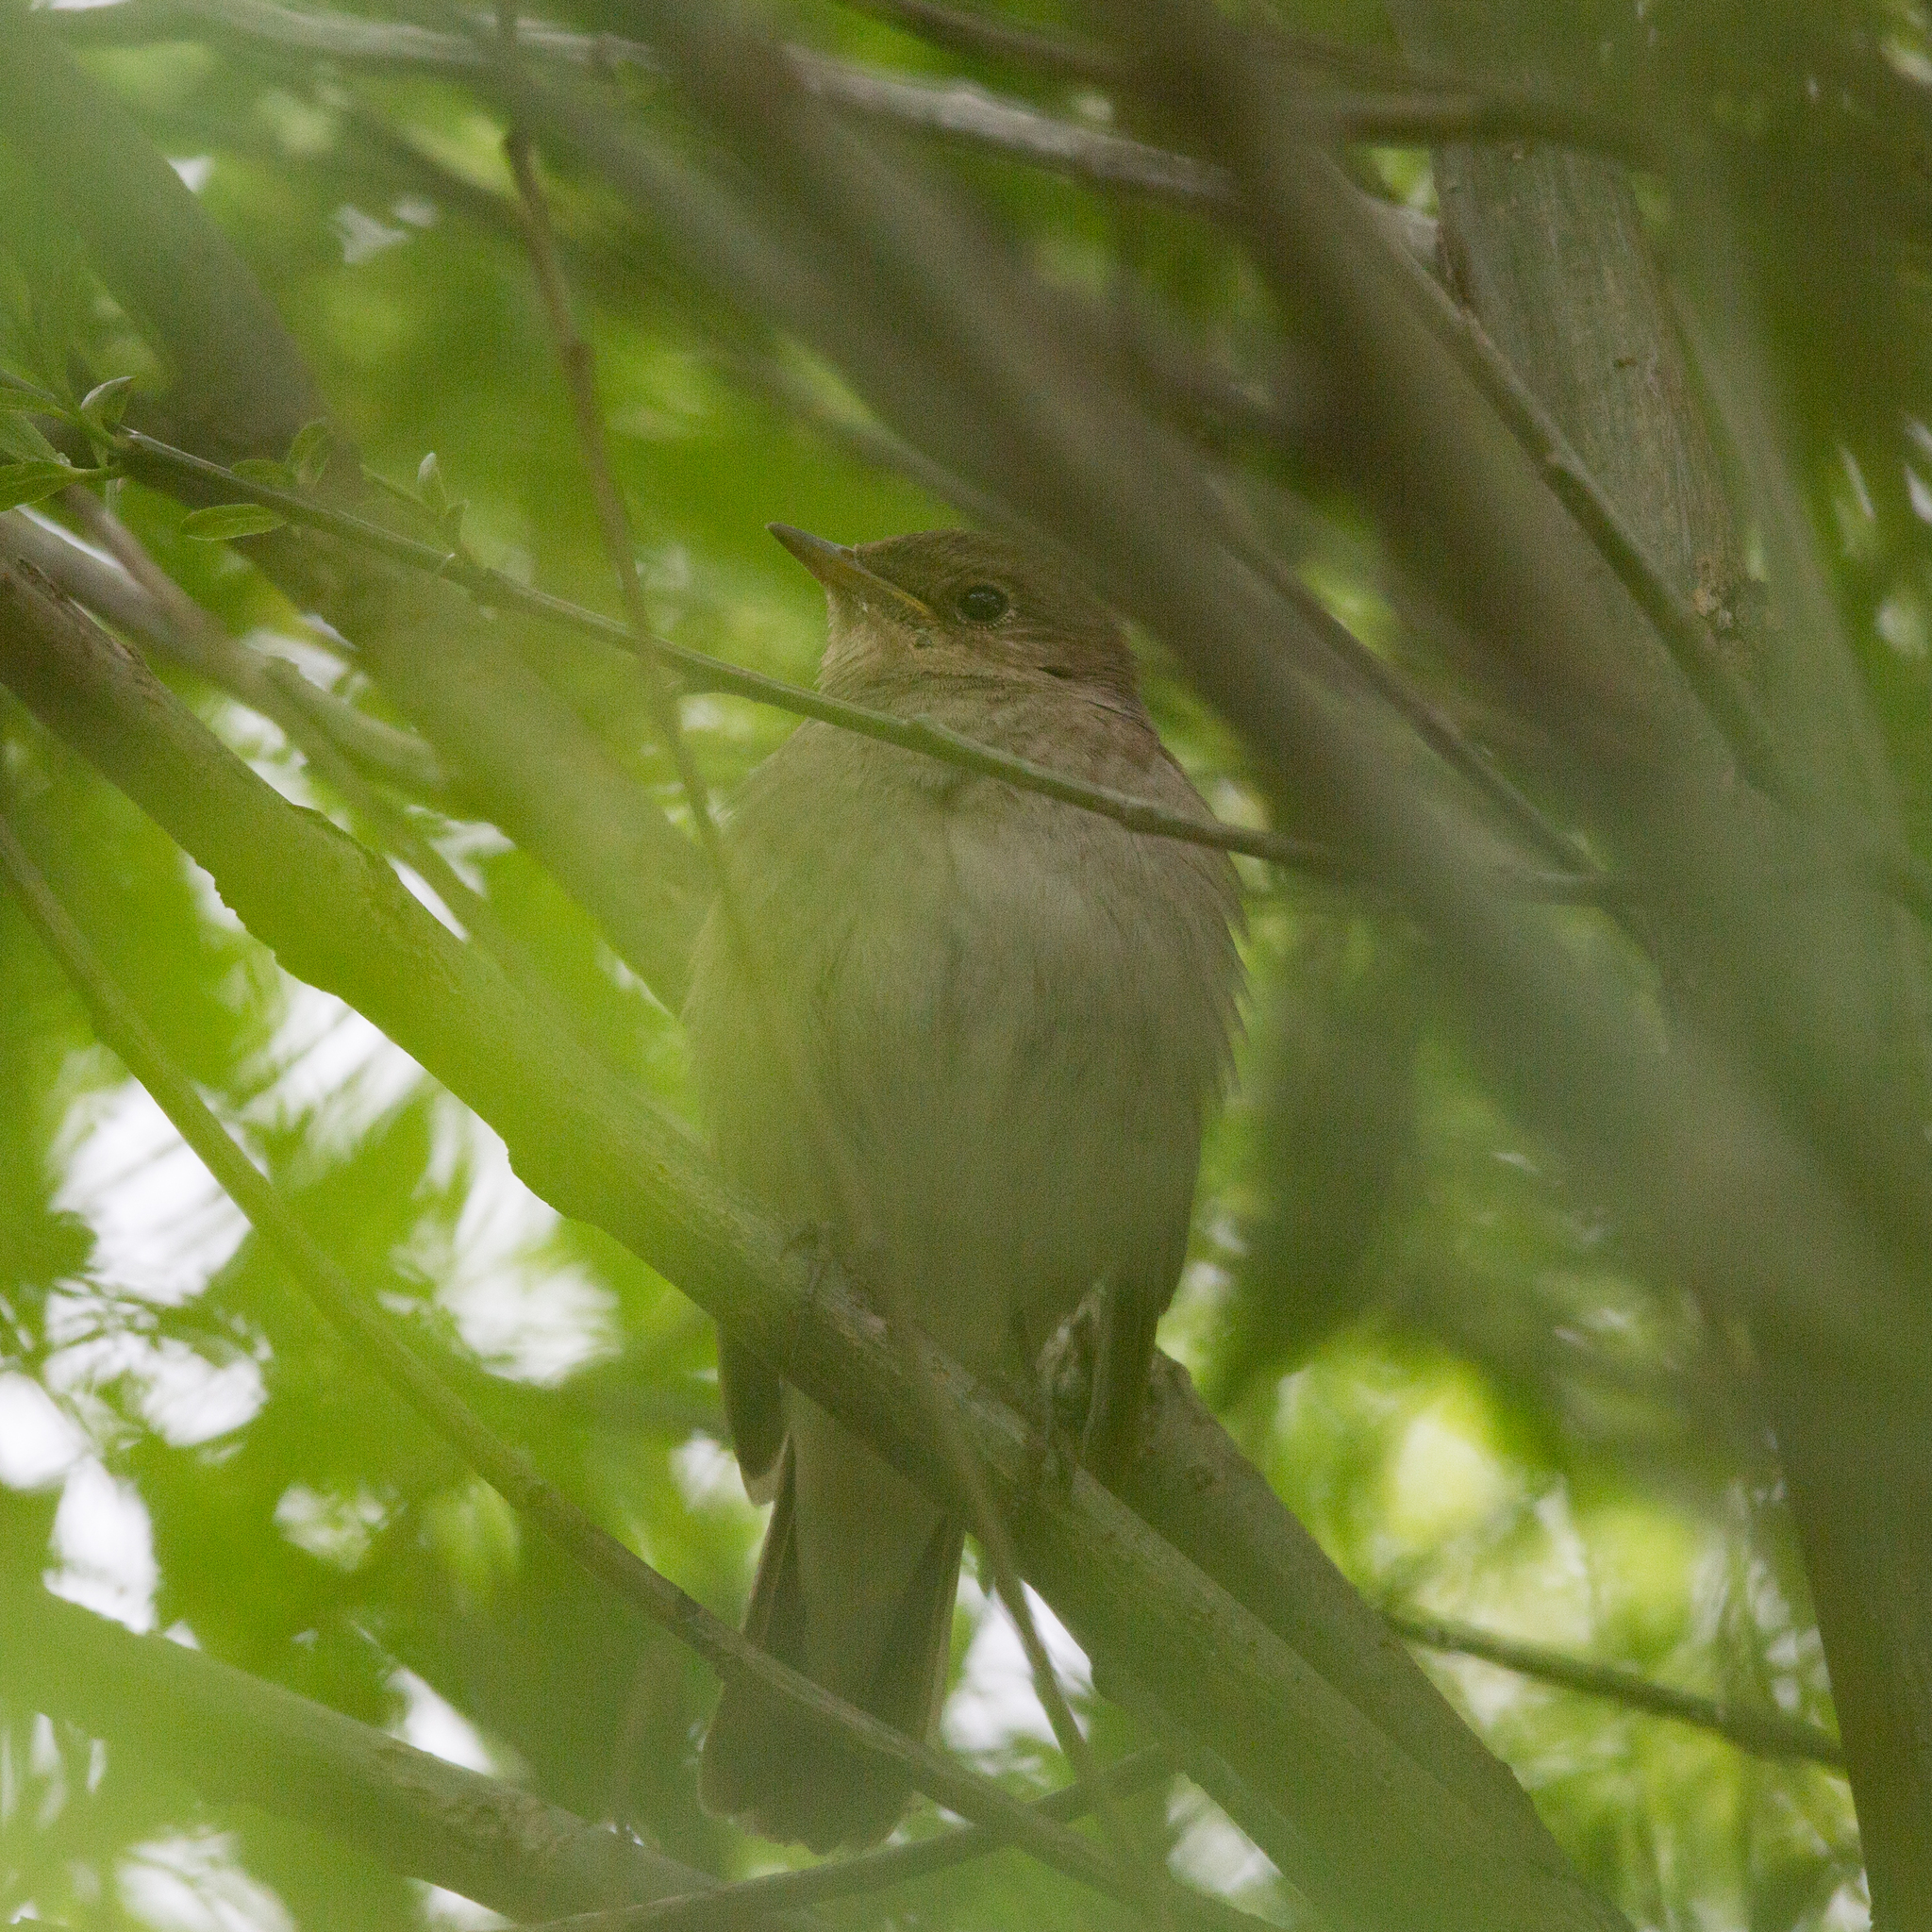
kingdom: Animalia
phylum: Chordata
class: Aves
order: Passeriformes
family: Muscicapidae
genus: Luscinia
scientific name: Luscinia luscinia
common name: Thrush nightingale
